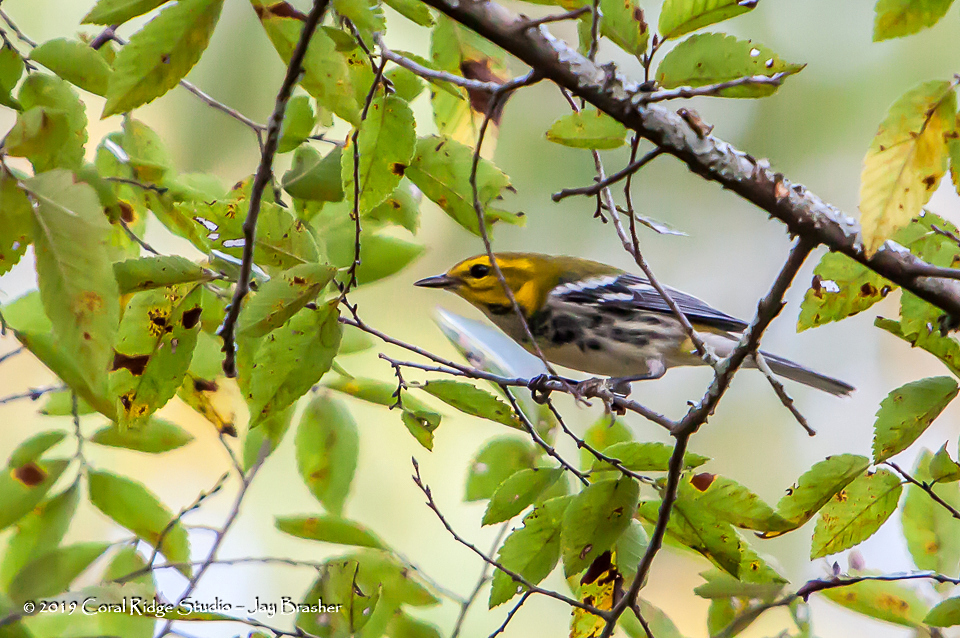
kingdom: Animalia
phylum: Chordata
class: Aves
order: Passeriformes
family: Parulidae
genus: Setophaga
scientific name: Setophaga virens
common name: Black-throated green warbler
